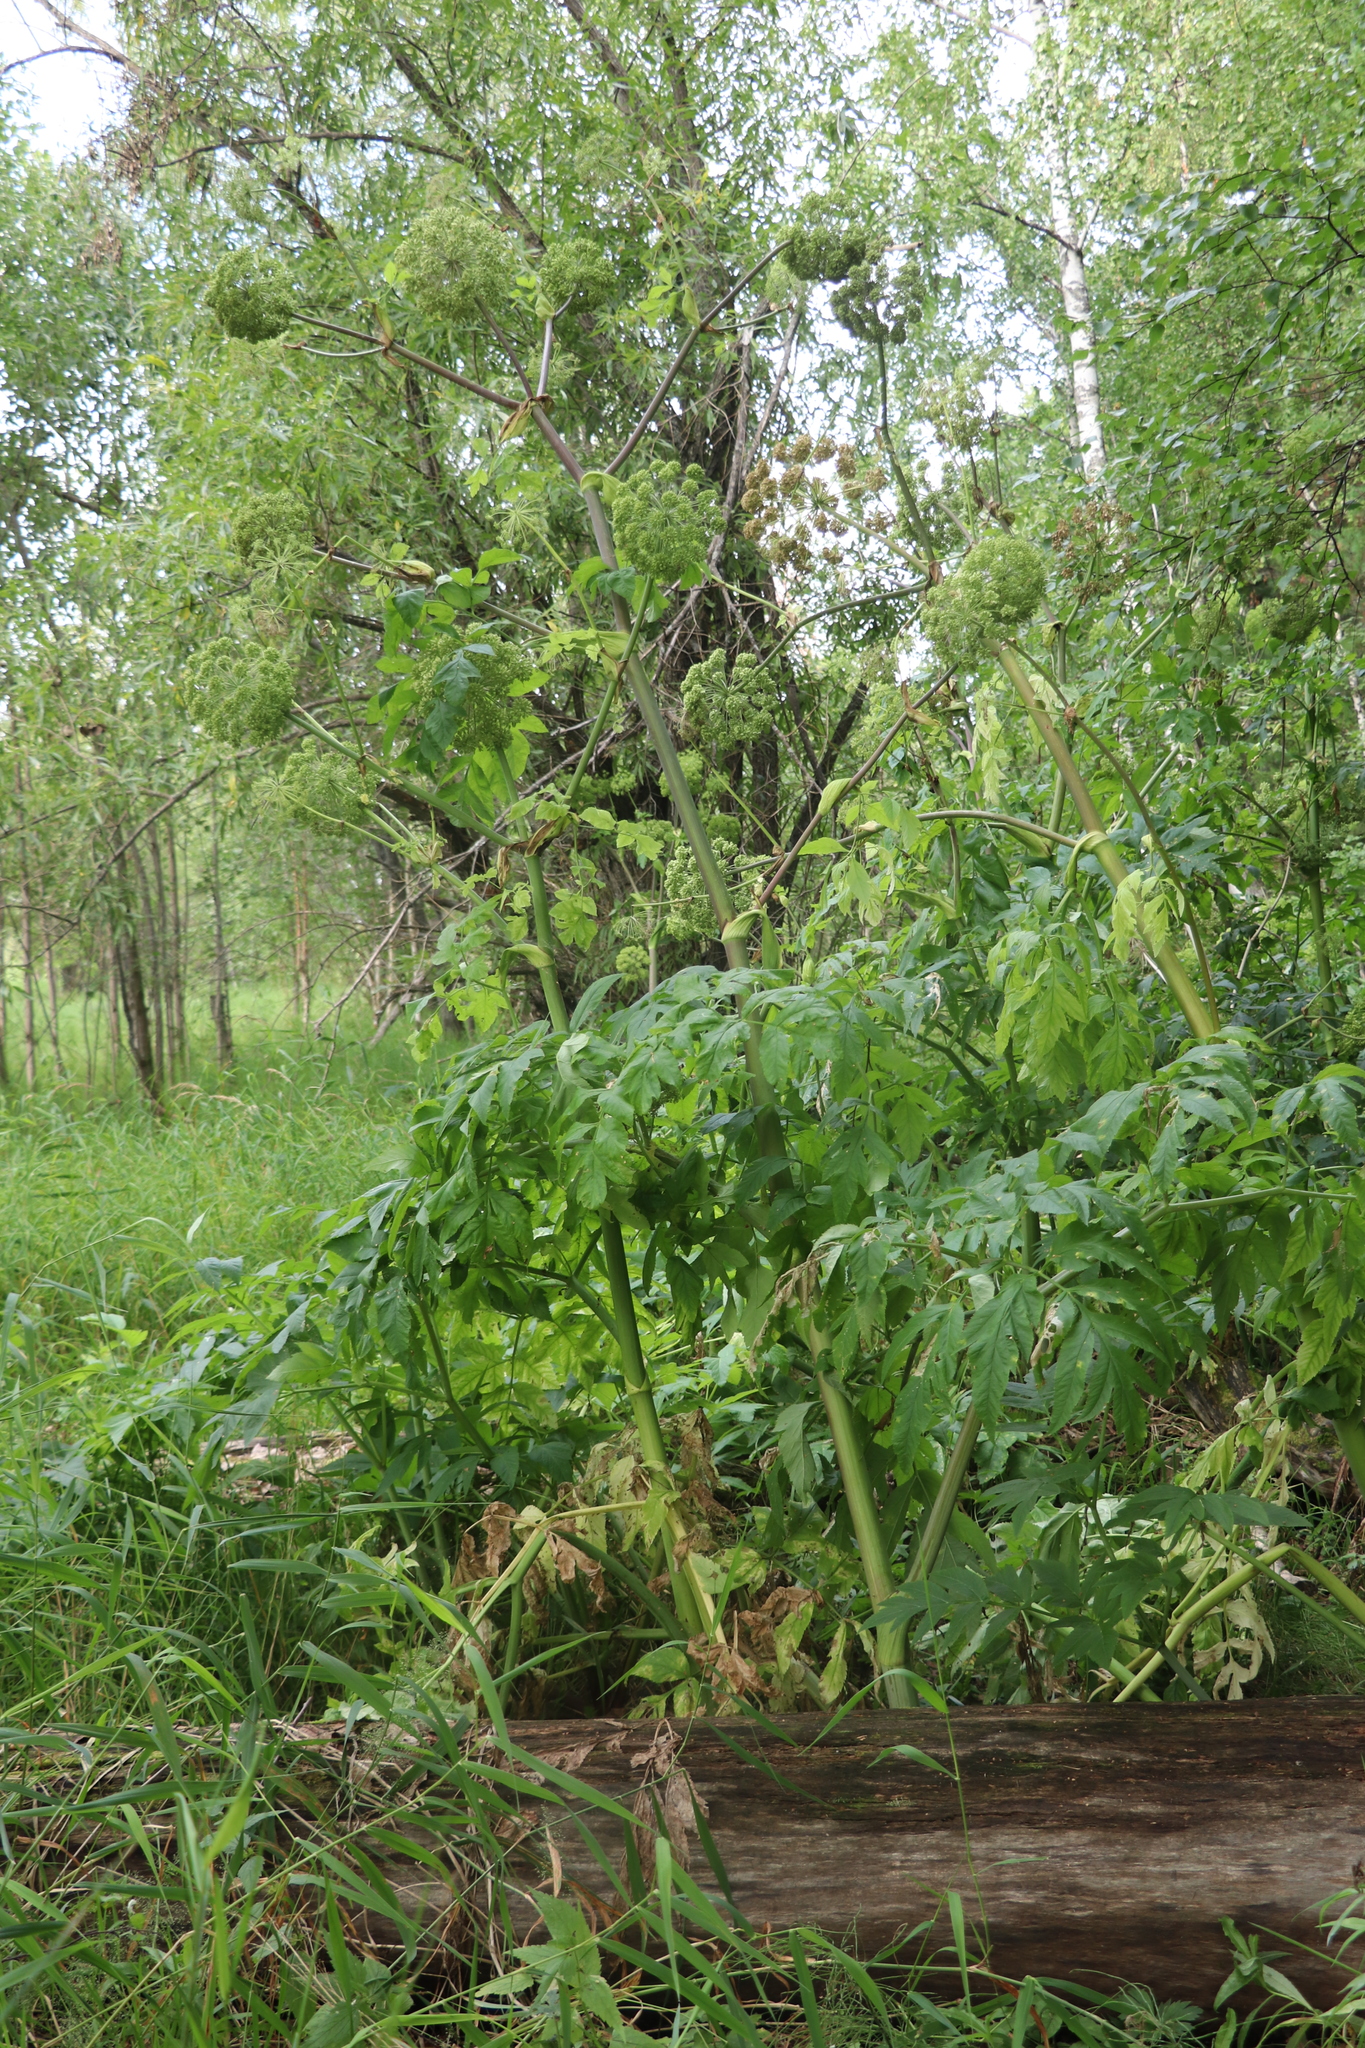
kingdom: Plantae
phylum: Tracheophyta
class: Magnoliopsida
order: Apiales
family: Apiaceae
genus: Angelica
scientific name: Angelica decurrens
